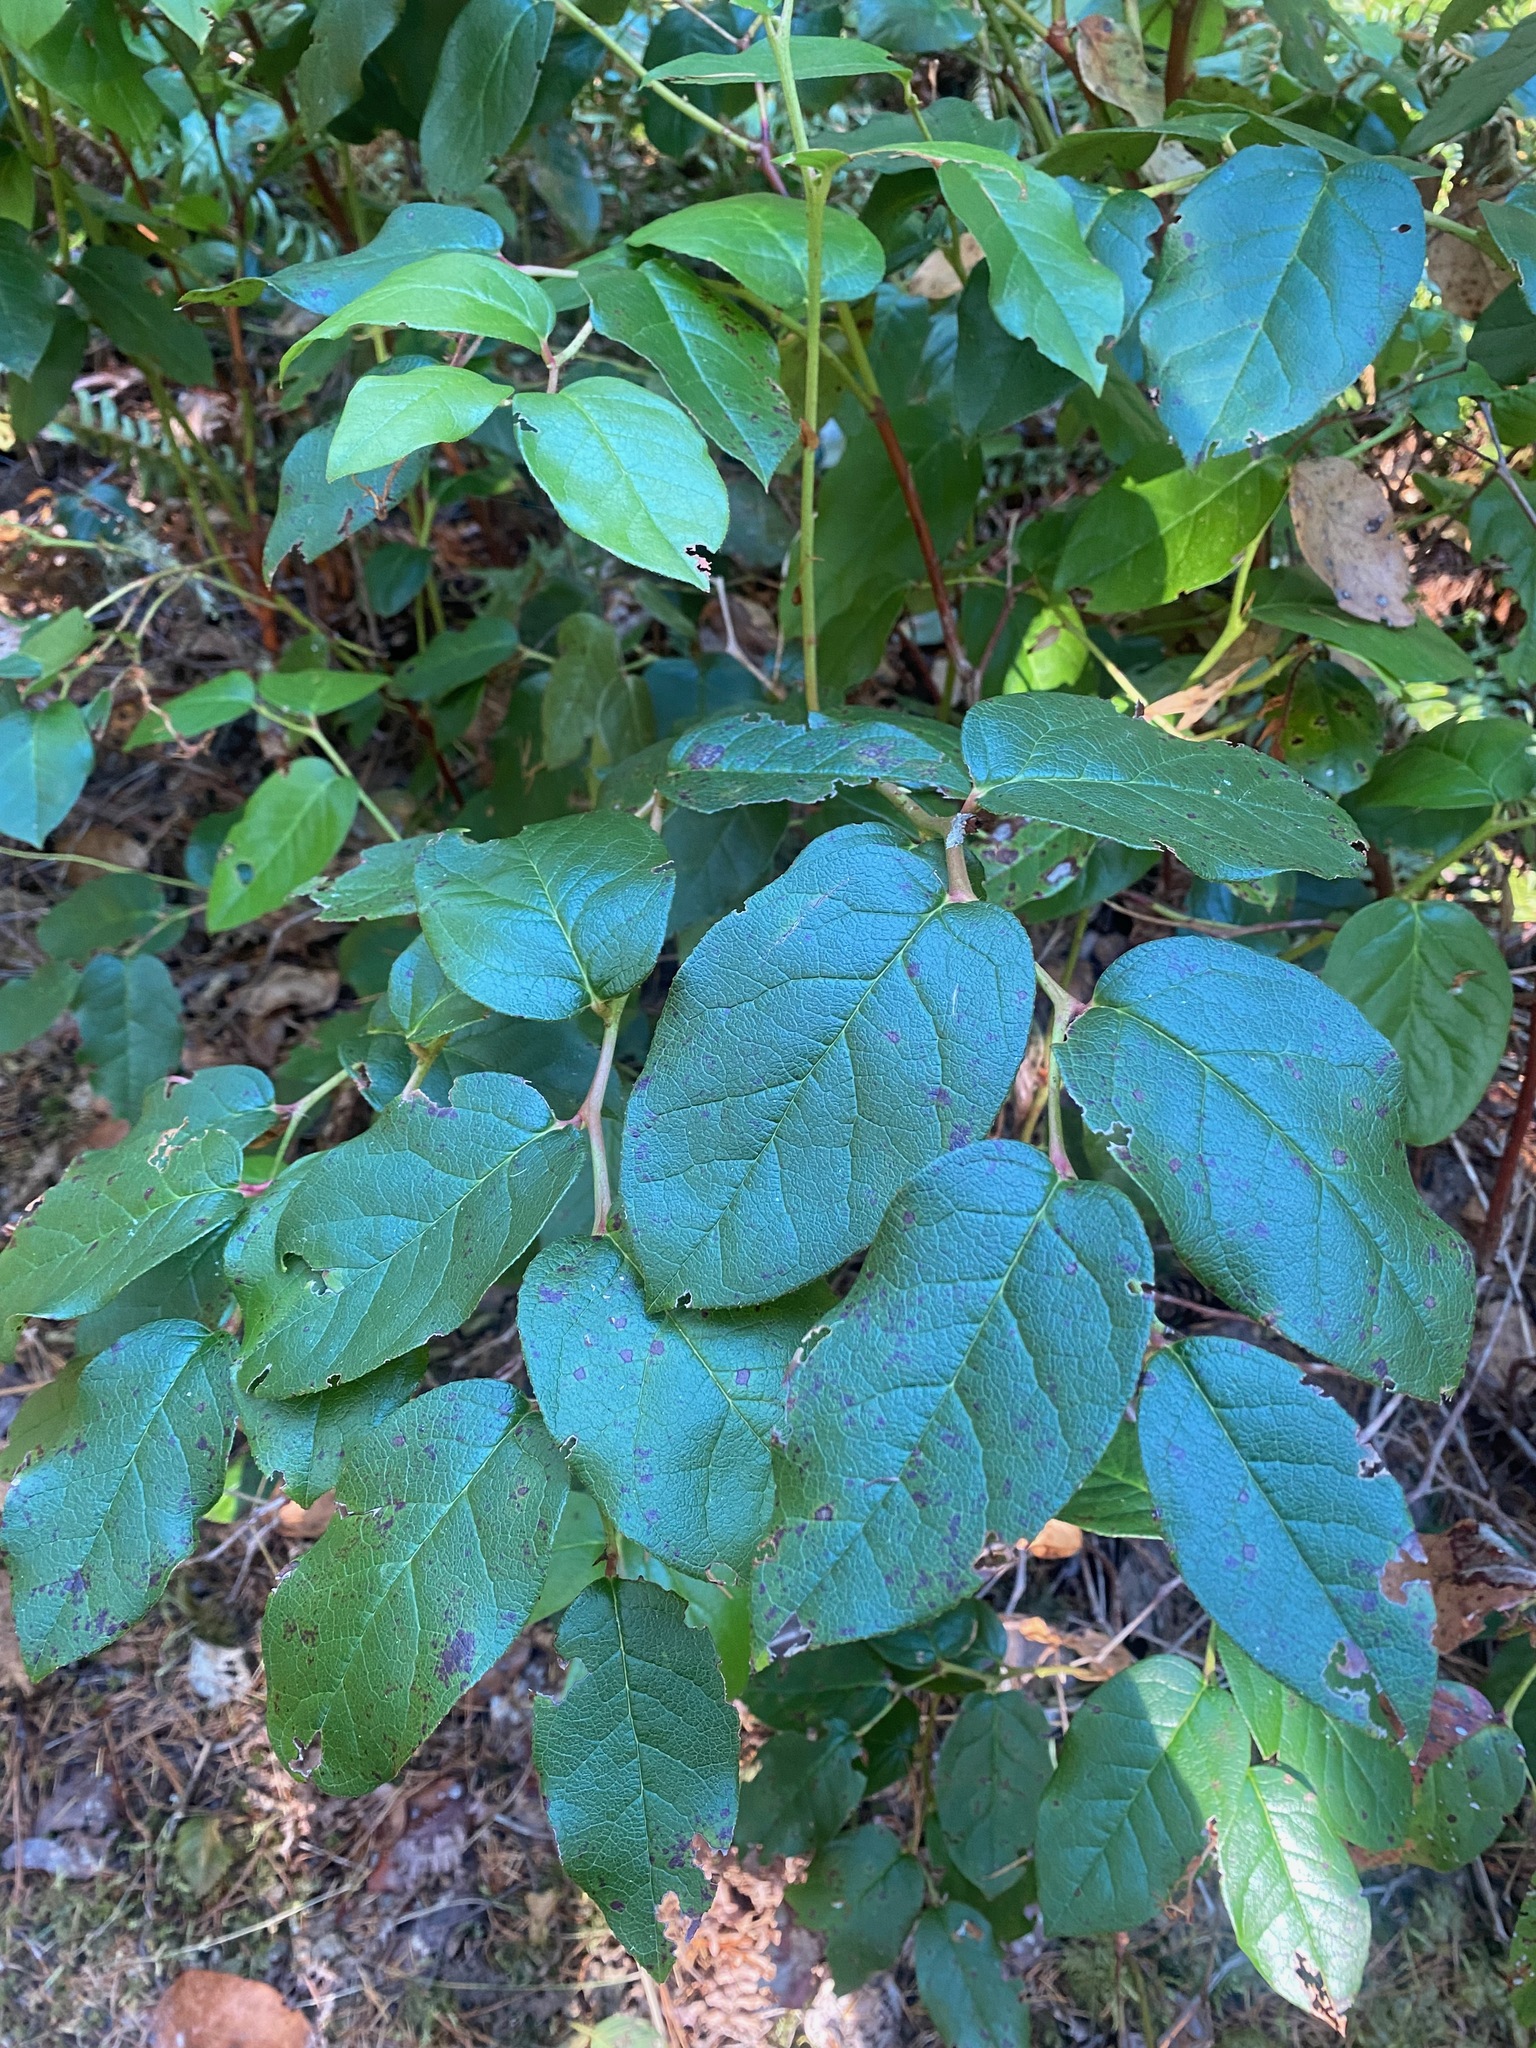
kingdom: Plantae
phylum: Tracheophyta
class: Magnoliopsida
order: Ericales
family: Ericaceae
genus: Gaultheria
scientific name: Gaultheria shallon
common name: Shallon
